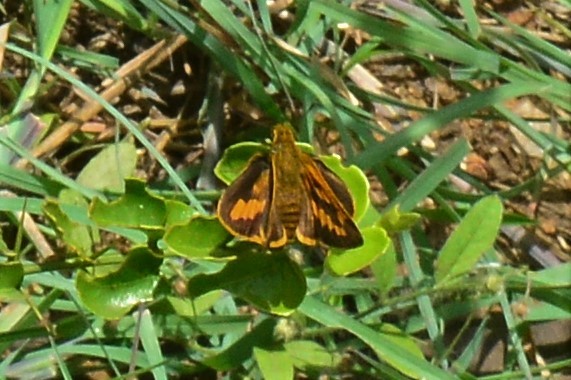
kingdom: Animalia
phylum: Arthropoda
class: Insecta
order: Lepidoptera
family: Hesperiidae
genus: Telicota
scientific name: Telicota bambusae
